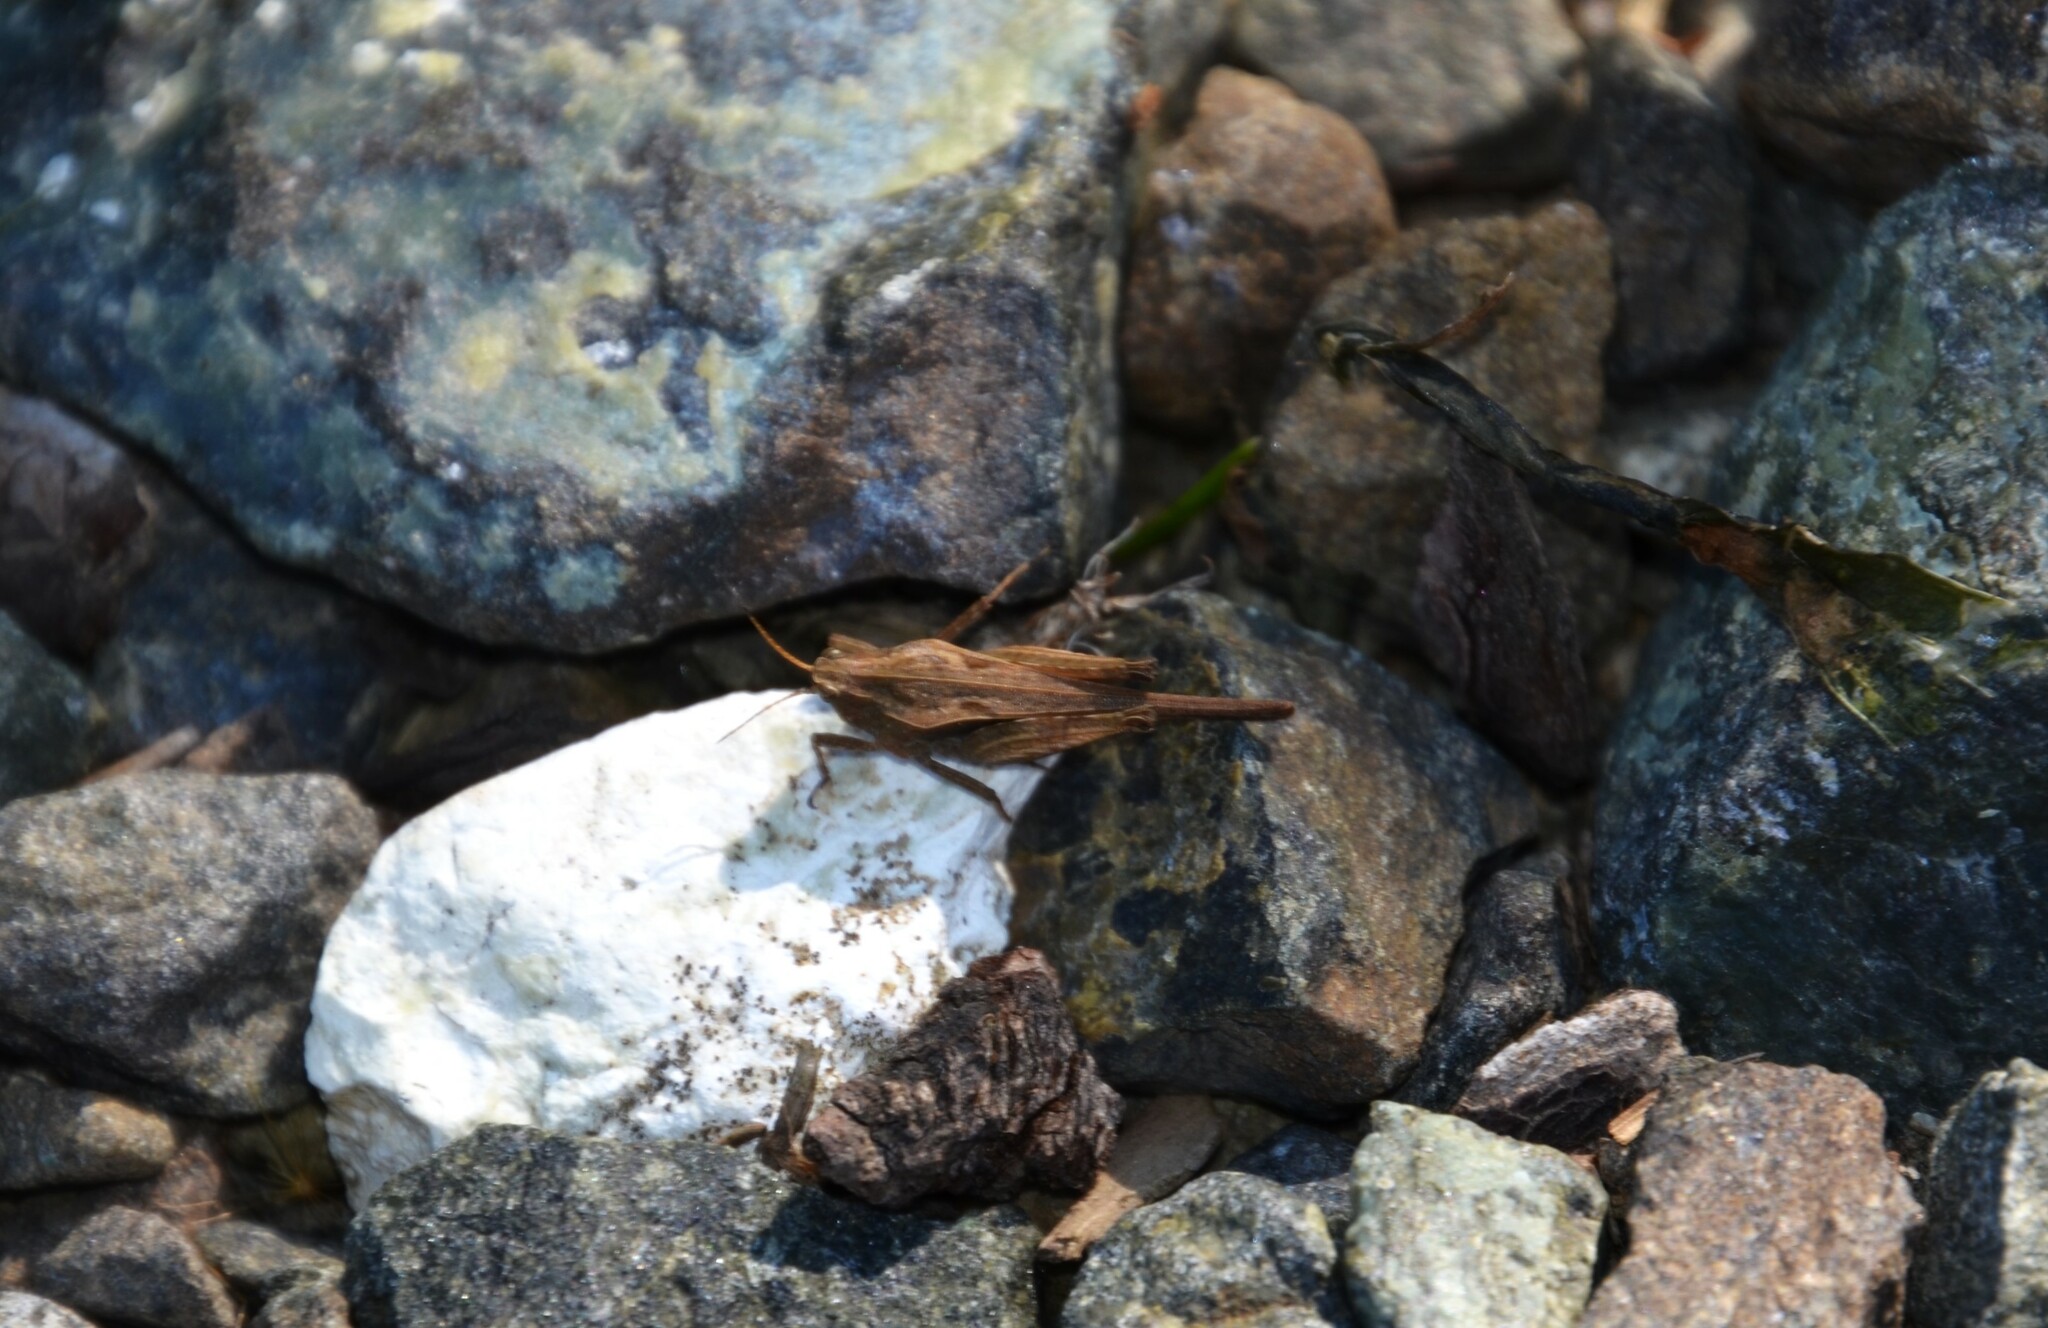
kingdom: Animalia
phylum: Arthropoda
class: Insecta
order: Orthoptera
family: Tetrigidae
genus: Tetrix
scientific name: Tetrix subulata
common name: Slender ground-hopper
